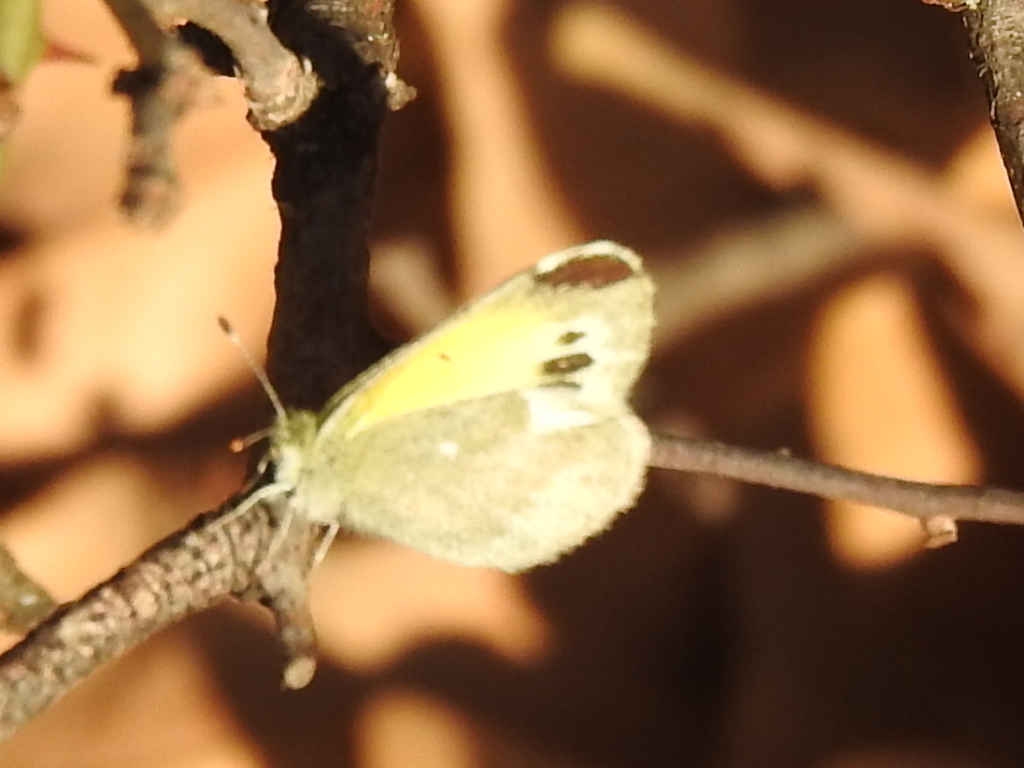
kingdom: Animalia
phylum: Arthropoda
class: Insecta
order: Lepidoptera
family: Pieridae
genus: Nathalis
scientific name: Nathalis iole
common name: Dainty sulphur
